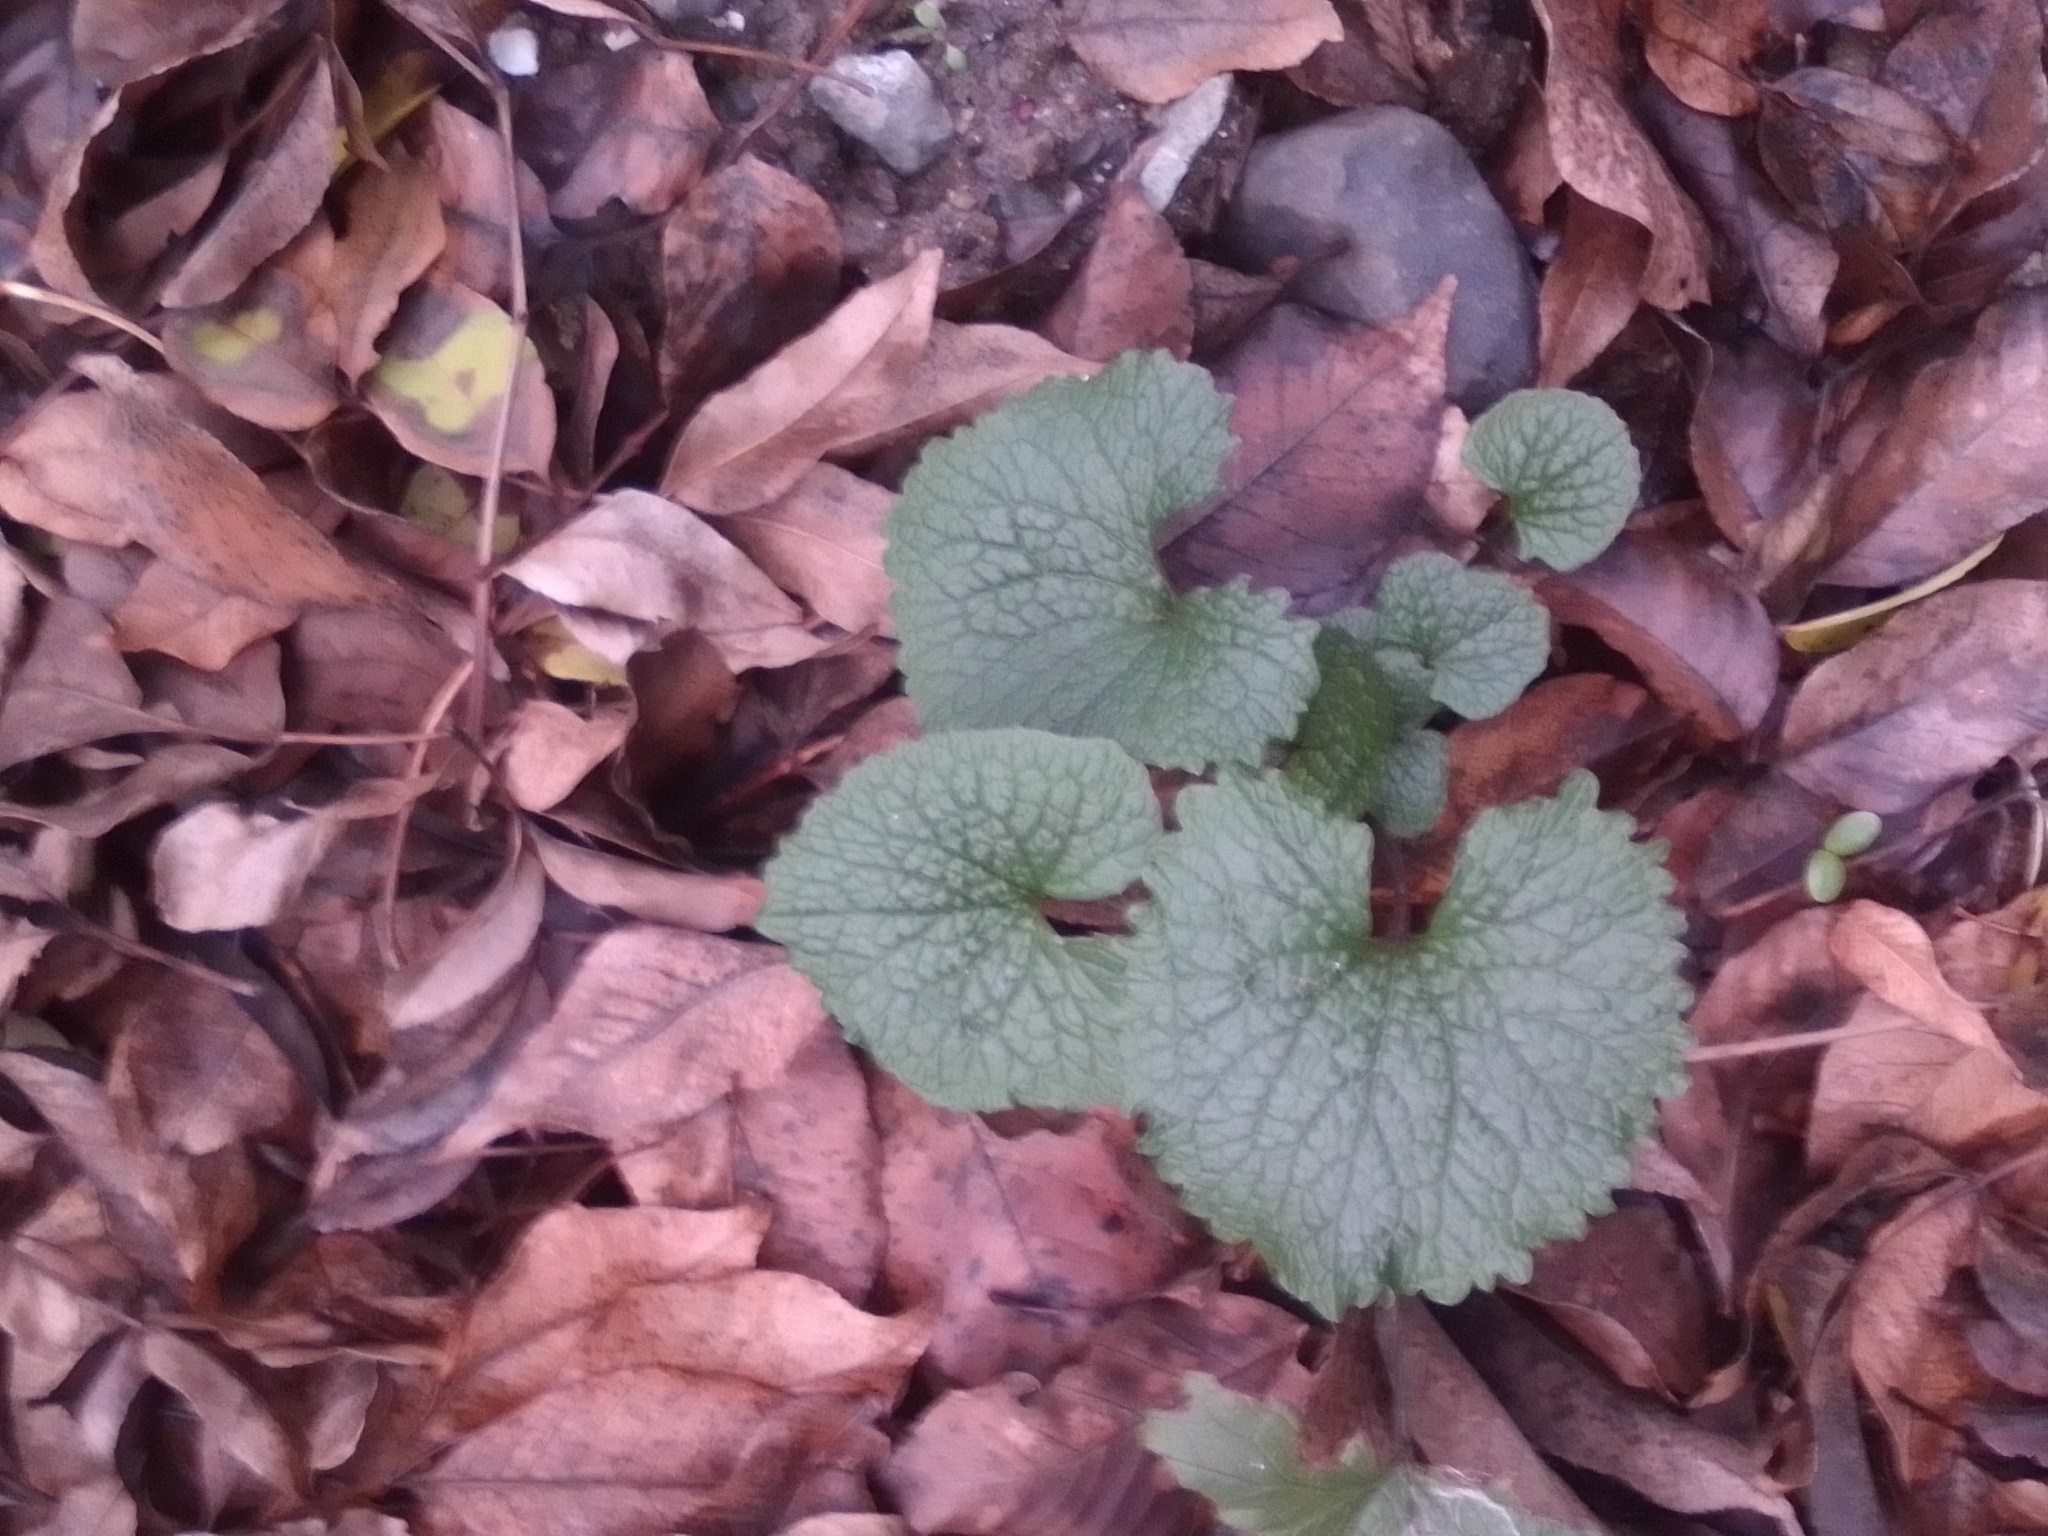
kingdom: Plantae
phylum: Tracheophyta
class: Magnoliopsida
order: Brassicales
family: Brassicaceae
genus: Alliaria
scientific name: Alliaria petiolata
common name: Garlic mustard
